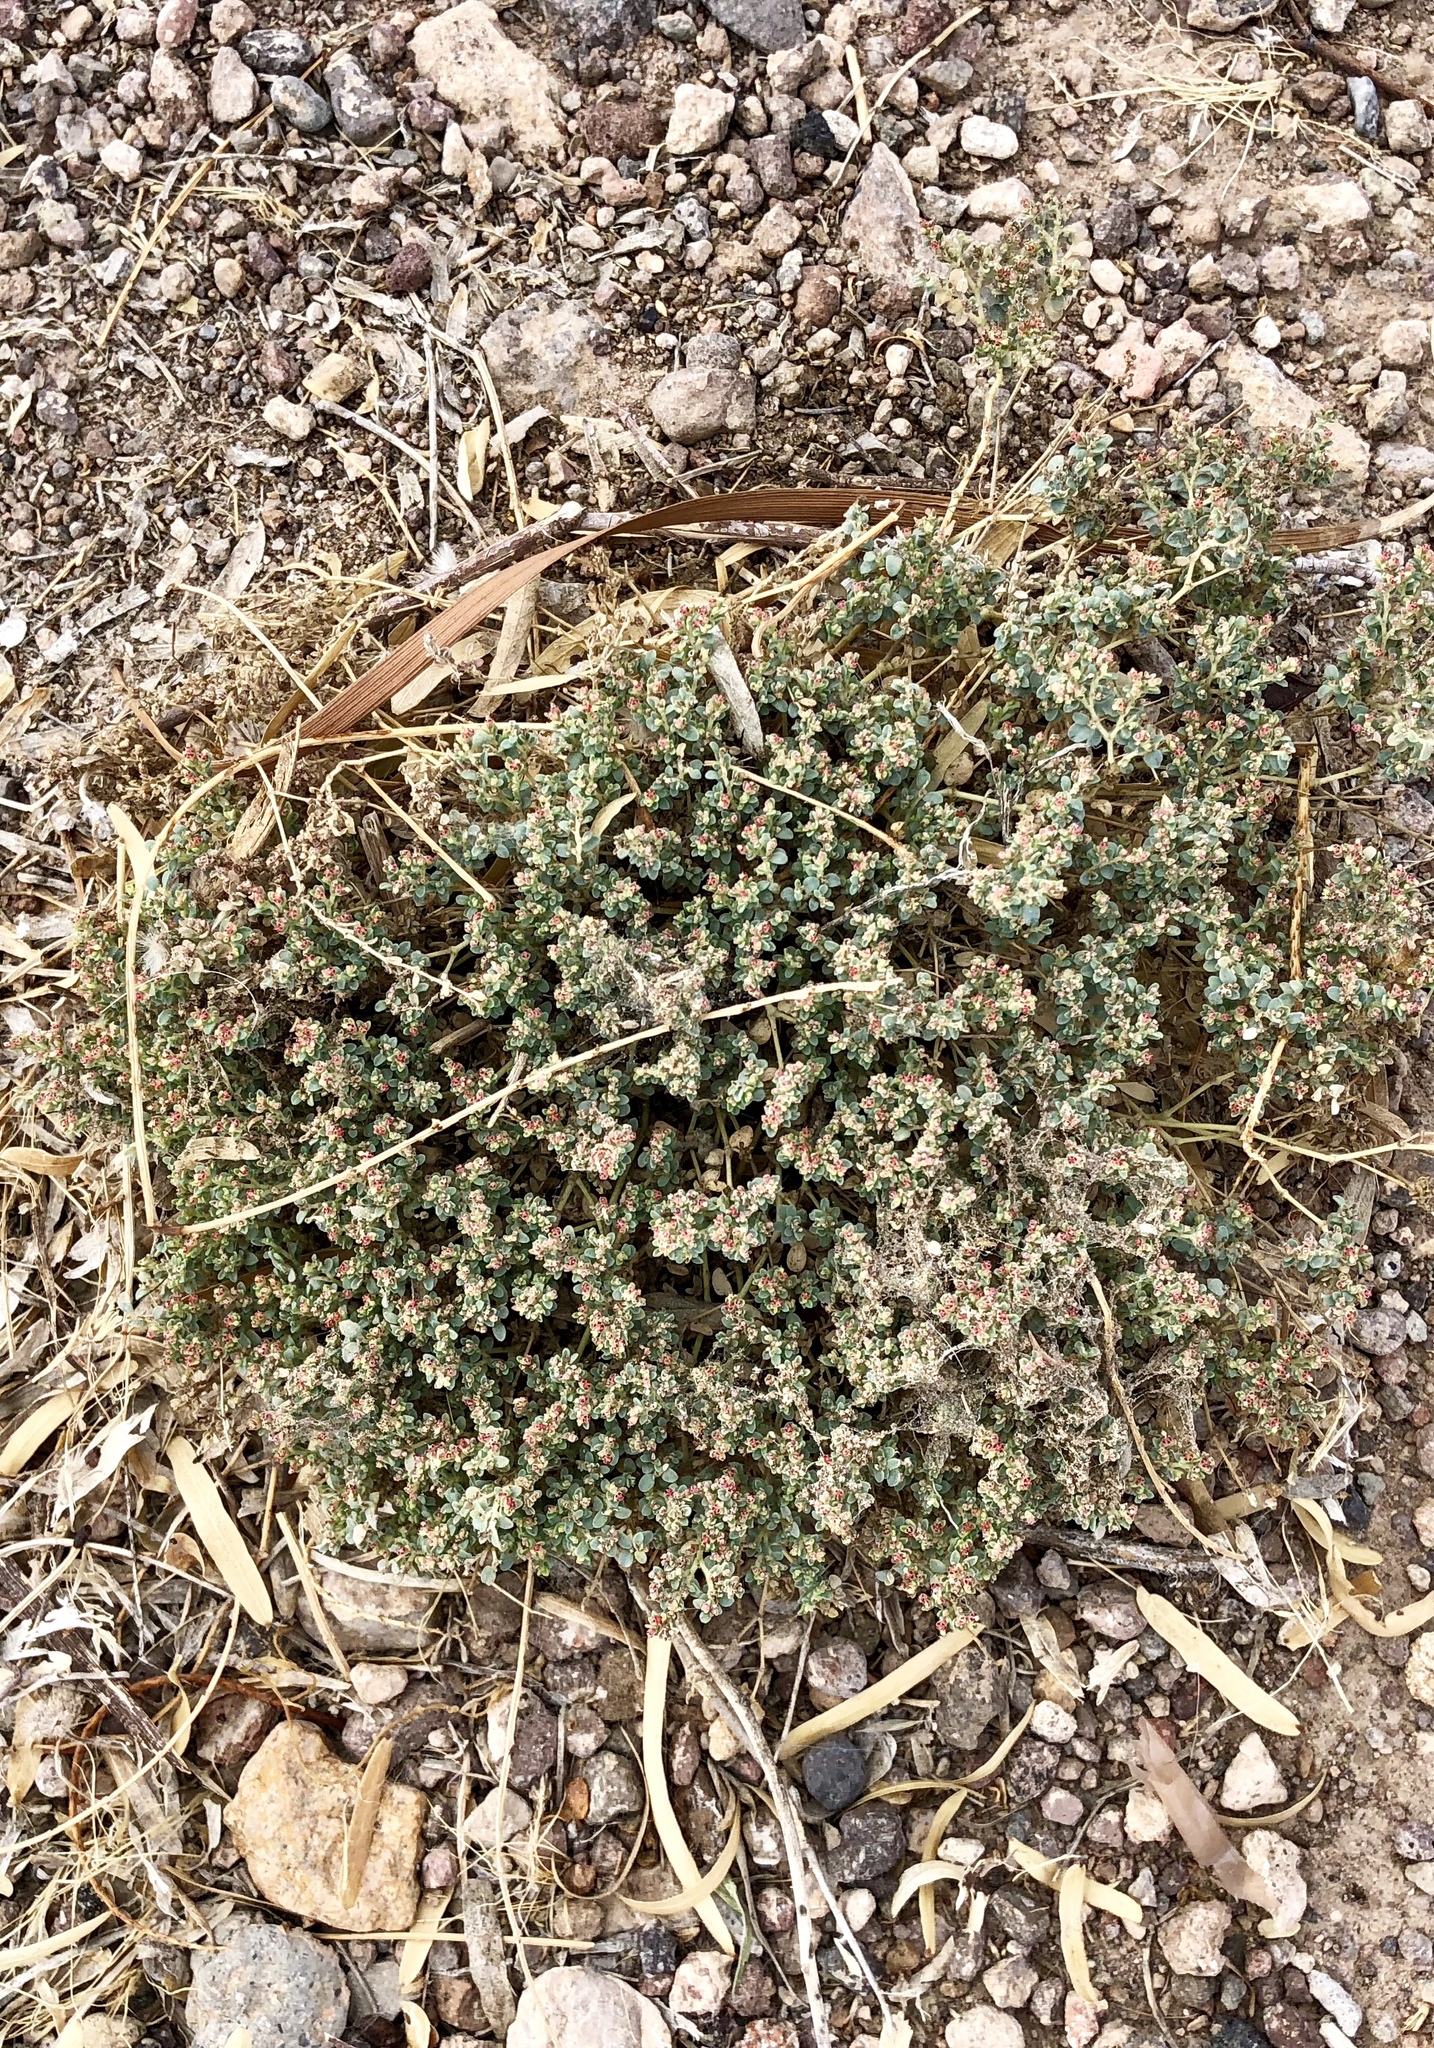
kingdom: Plantae
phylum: Tracheophyta
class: Magnoliopsida
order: Malpighiales
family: Euphorbiaceae
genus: Euphorbia
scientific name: Euphorbia polycarpa
